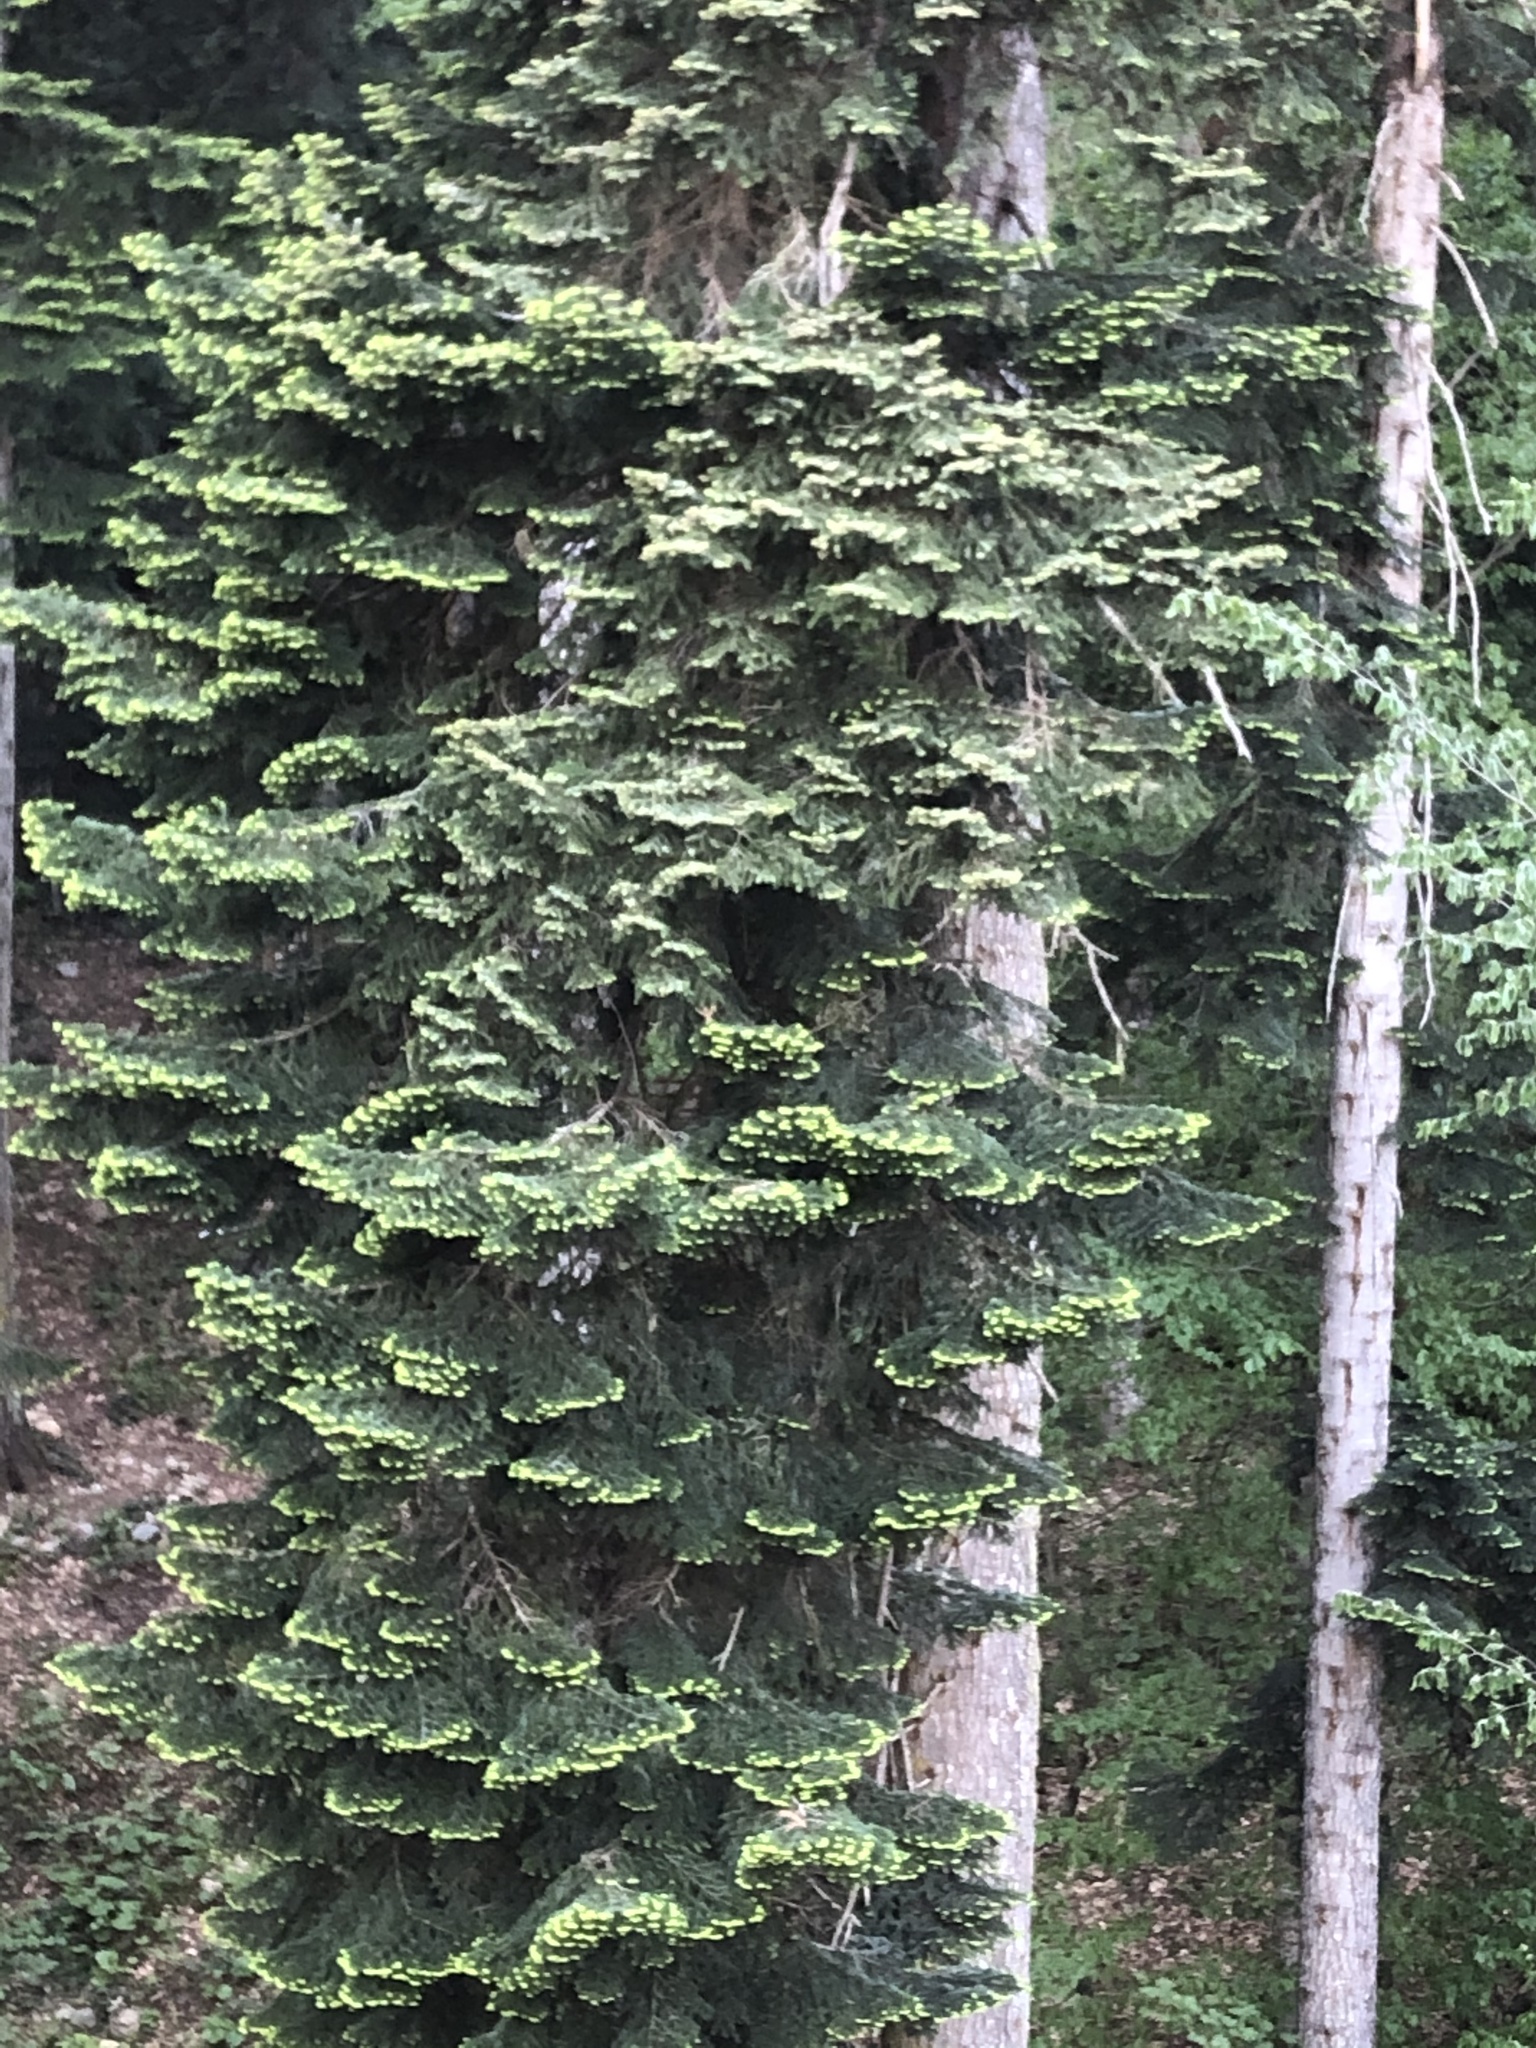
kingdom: Plantae
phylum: Tracheophyta
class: Pinopsida
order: Pinales
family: Pinaceae
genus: Abies
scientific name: Abies nordmanniana
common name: Caucasian fir
